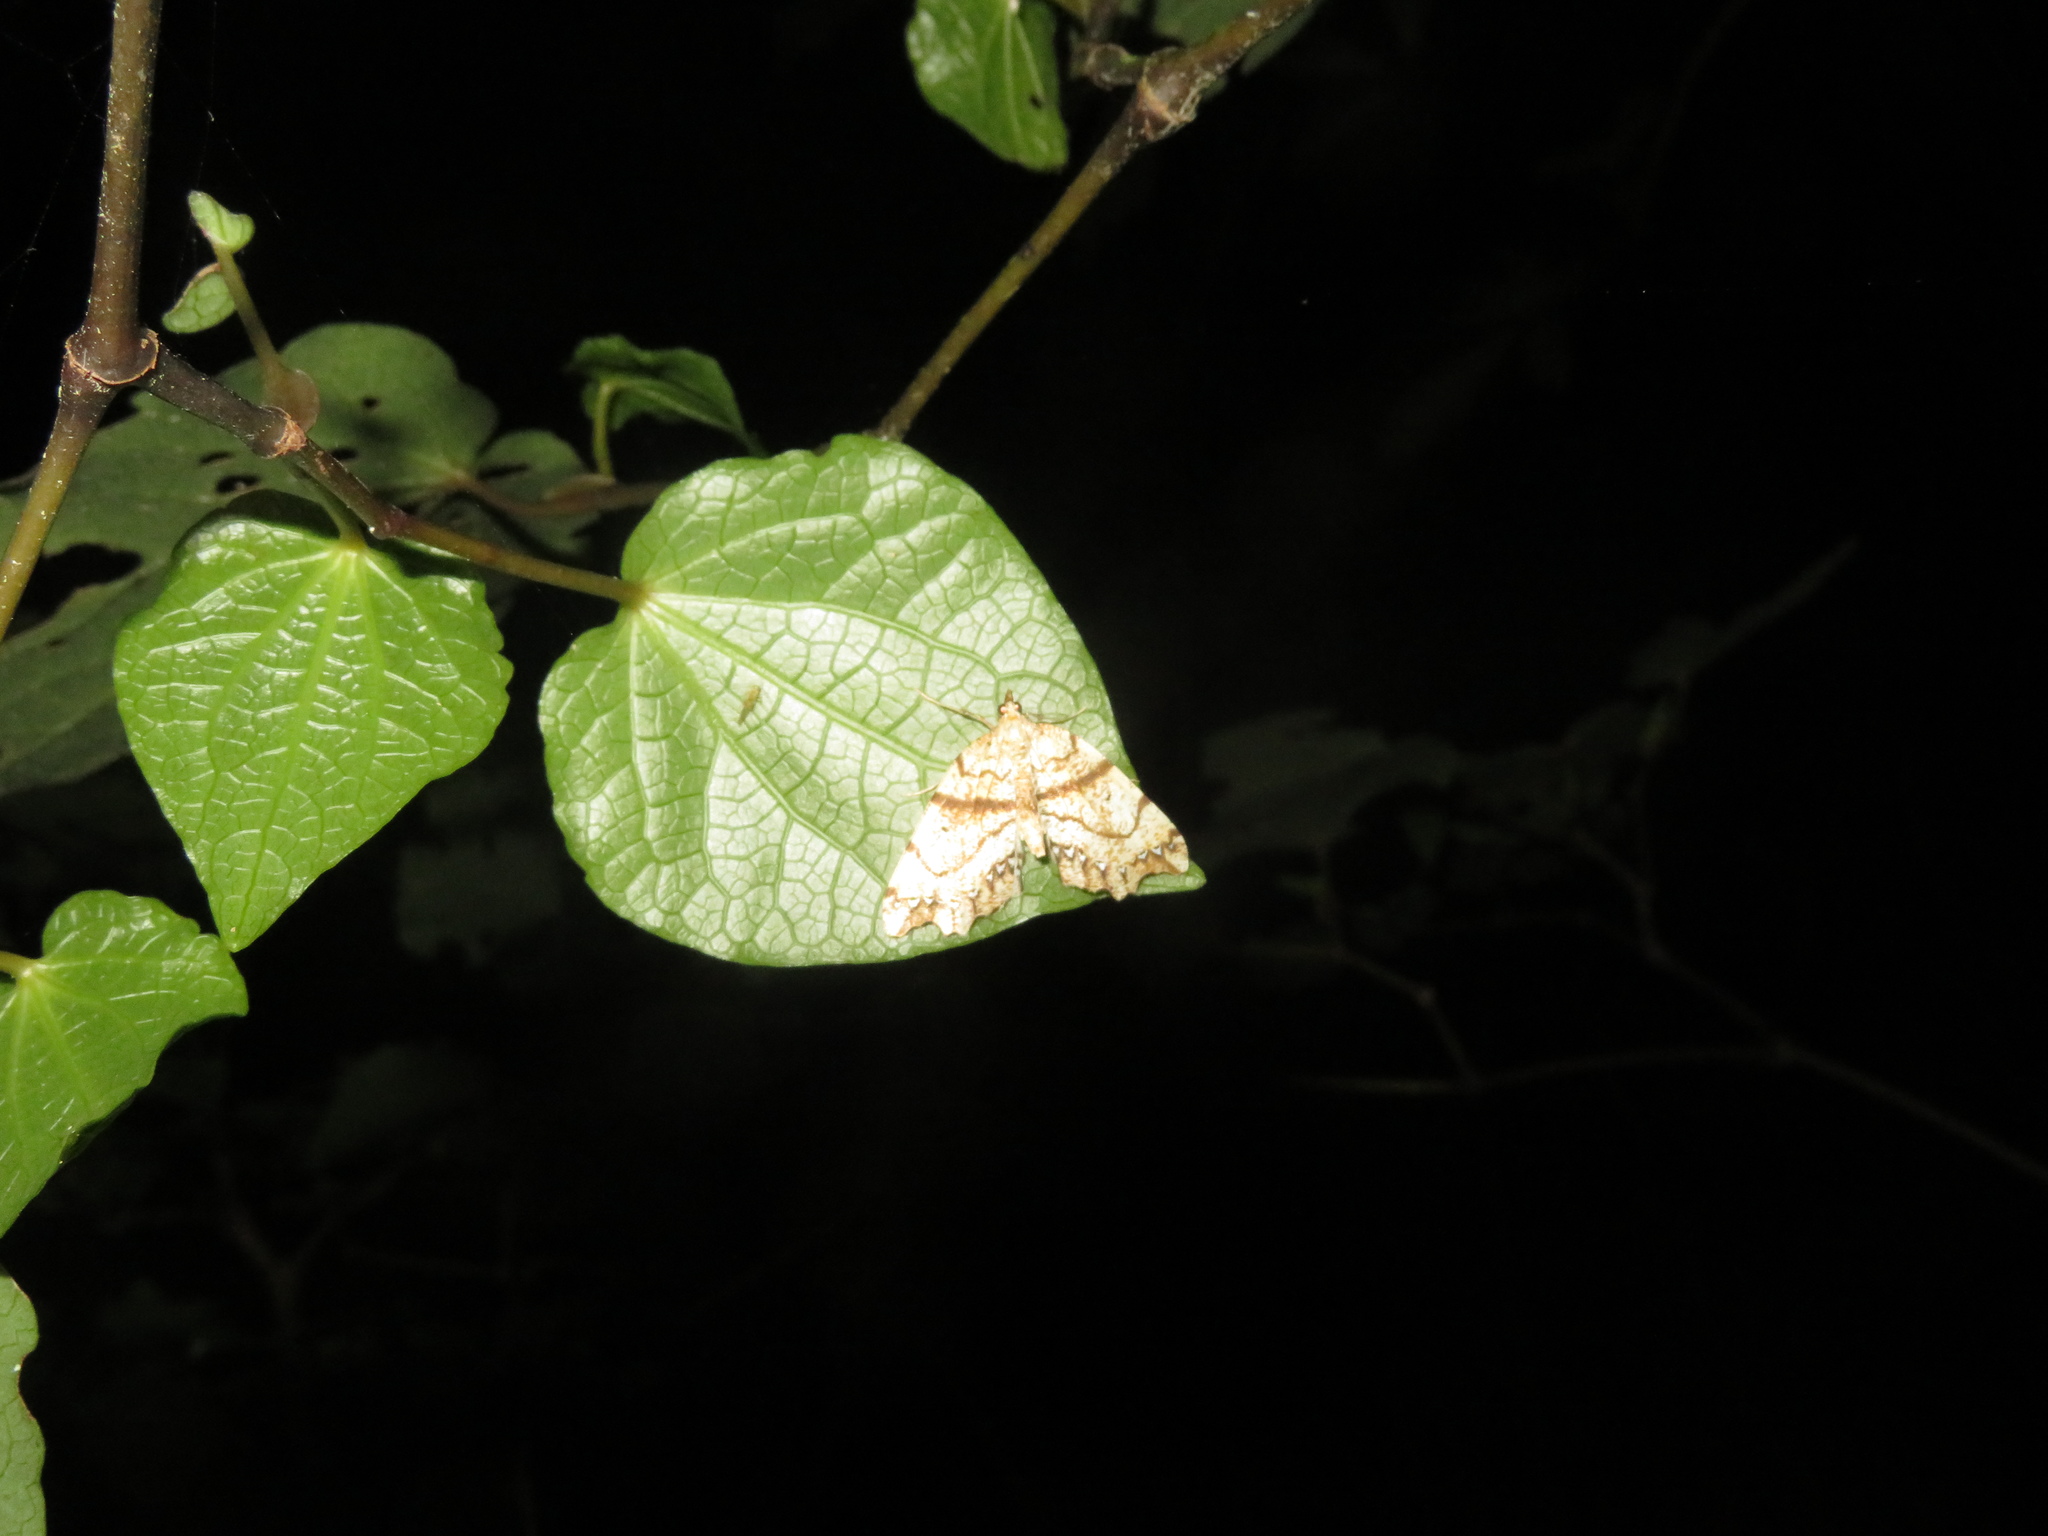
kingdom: Animalia
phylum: Arthropoda
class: Insecta
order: Lepidoptera
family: Geometridae
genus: Chalastra
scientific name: Chalastra pellurgata
